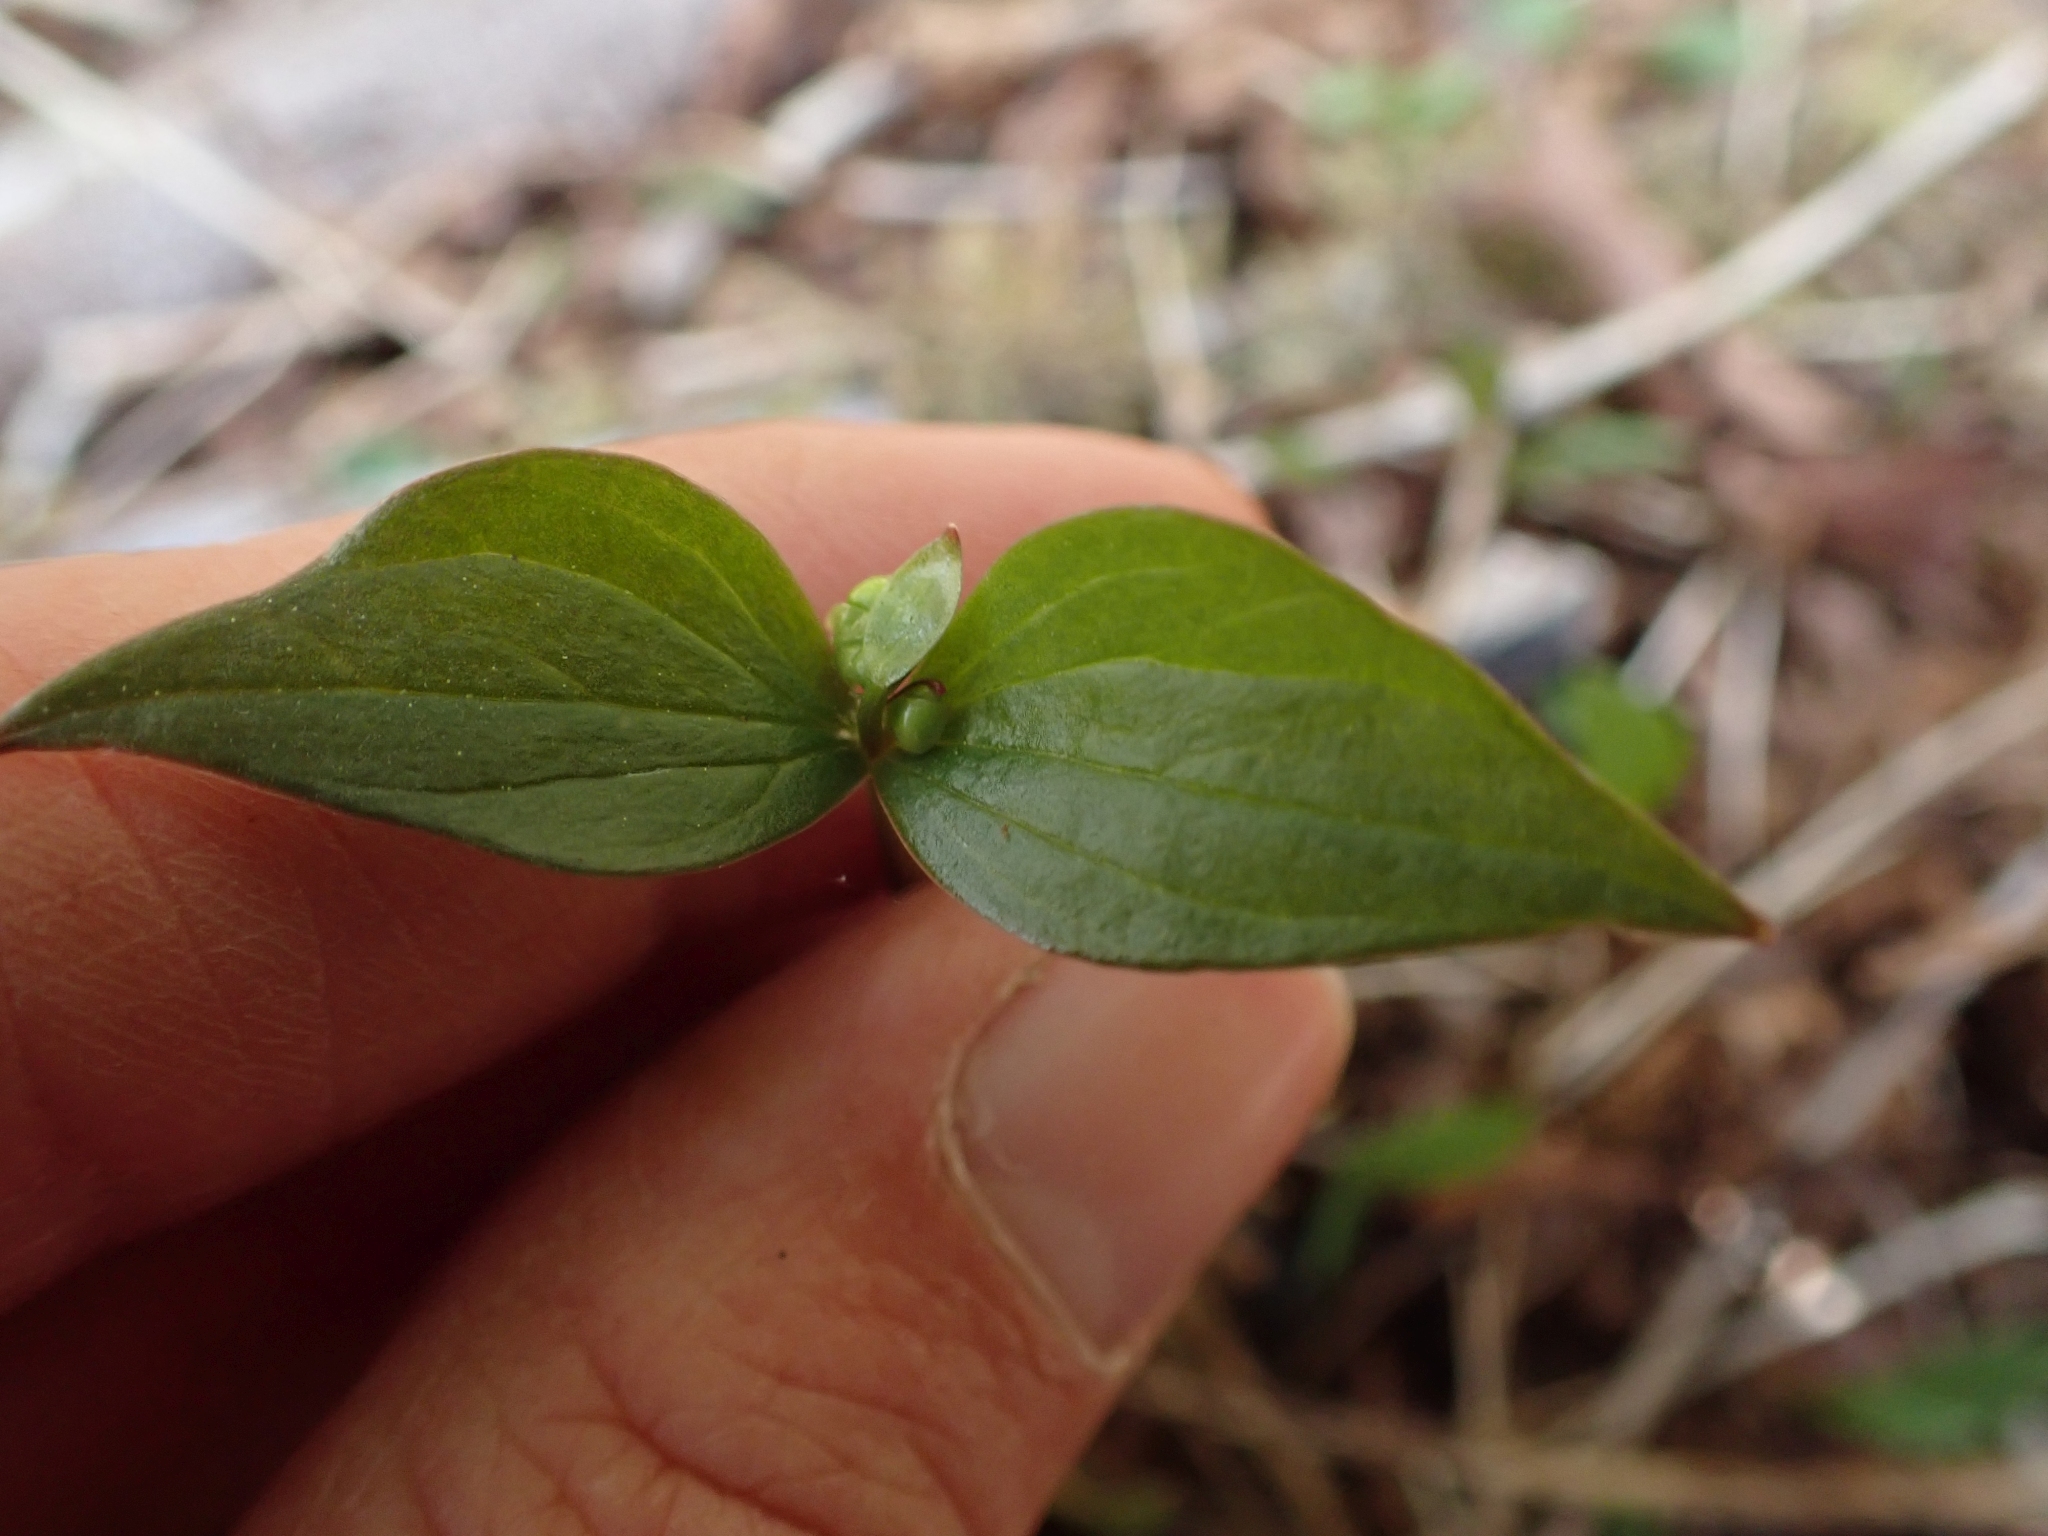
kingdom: Plantae
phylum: Tracheophyta
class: Magnoliopsida
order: Caryophyllales
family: Montiaceae
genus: Claytonia
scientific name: Claytonia sibirica
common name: Pink purslane
